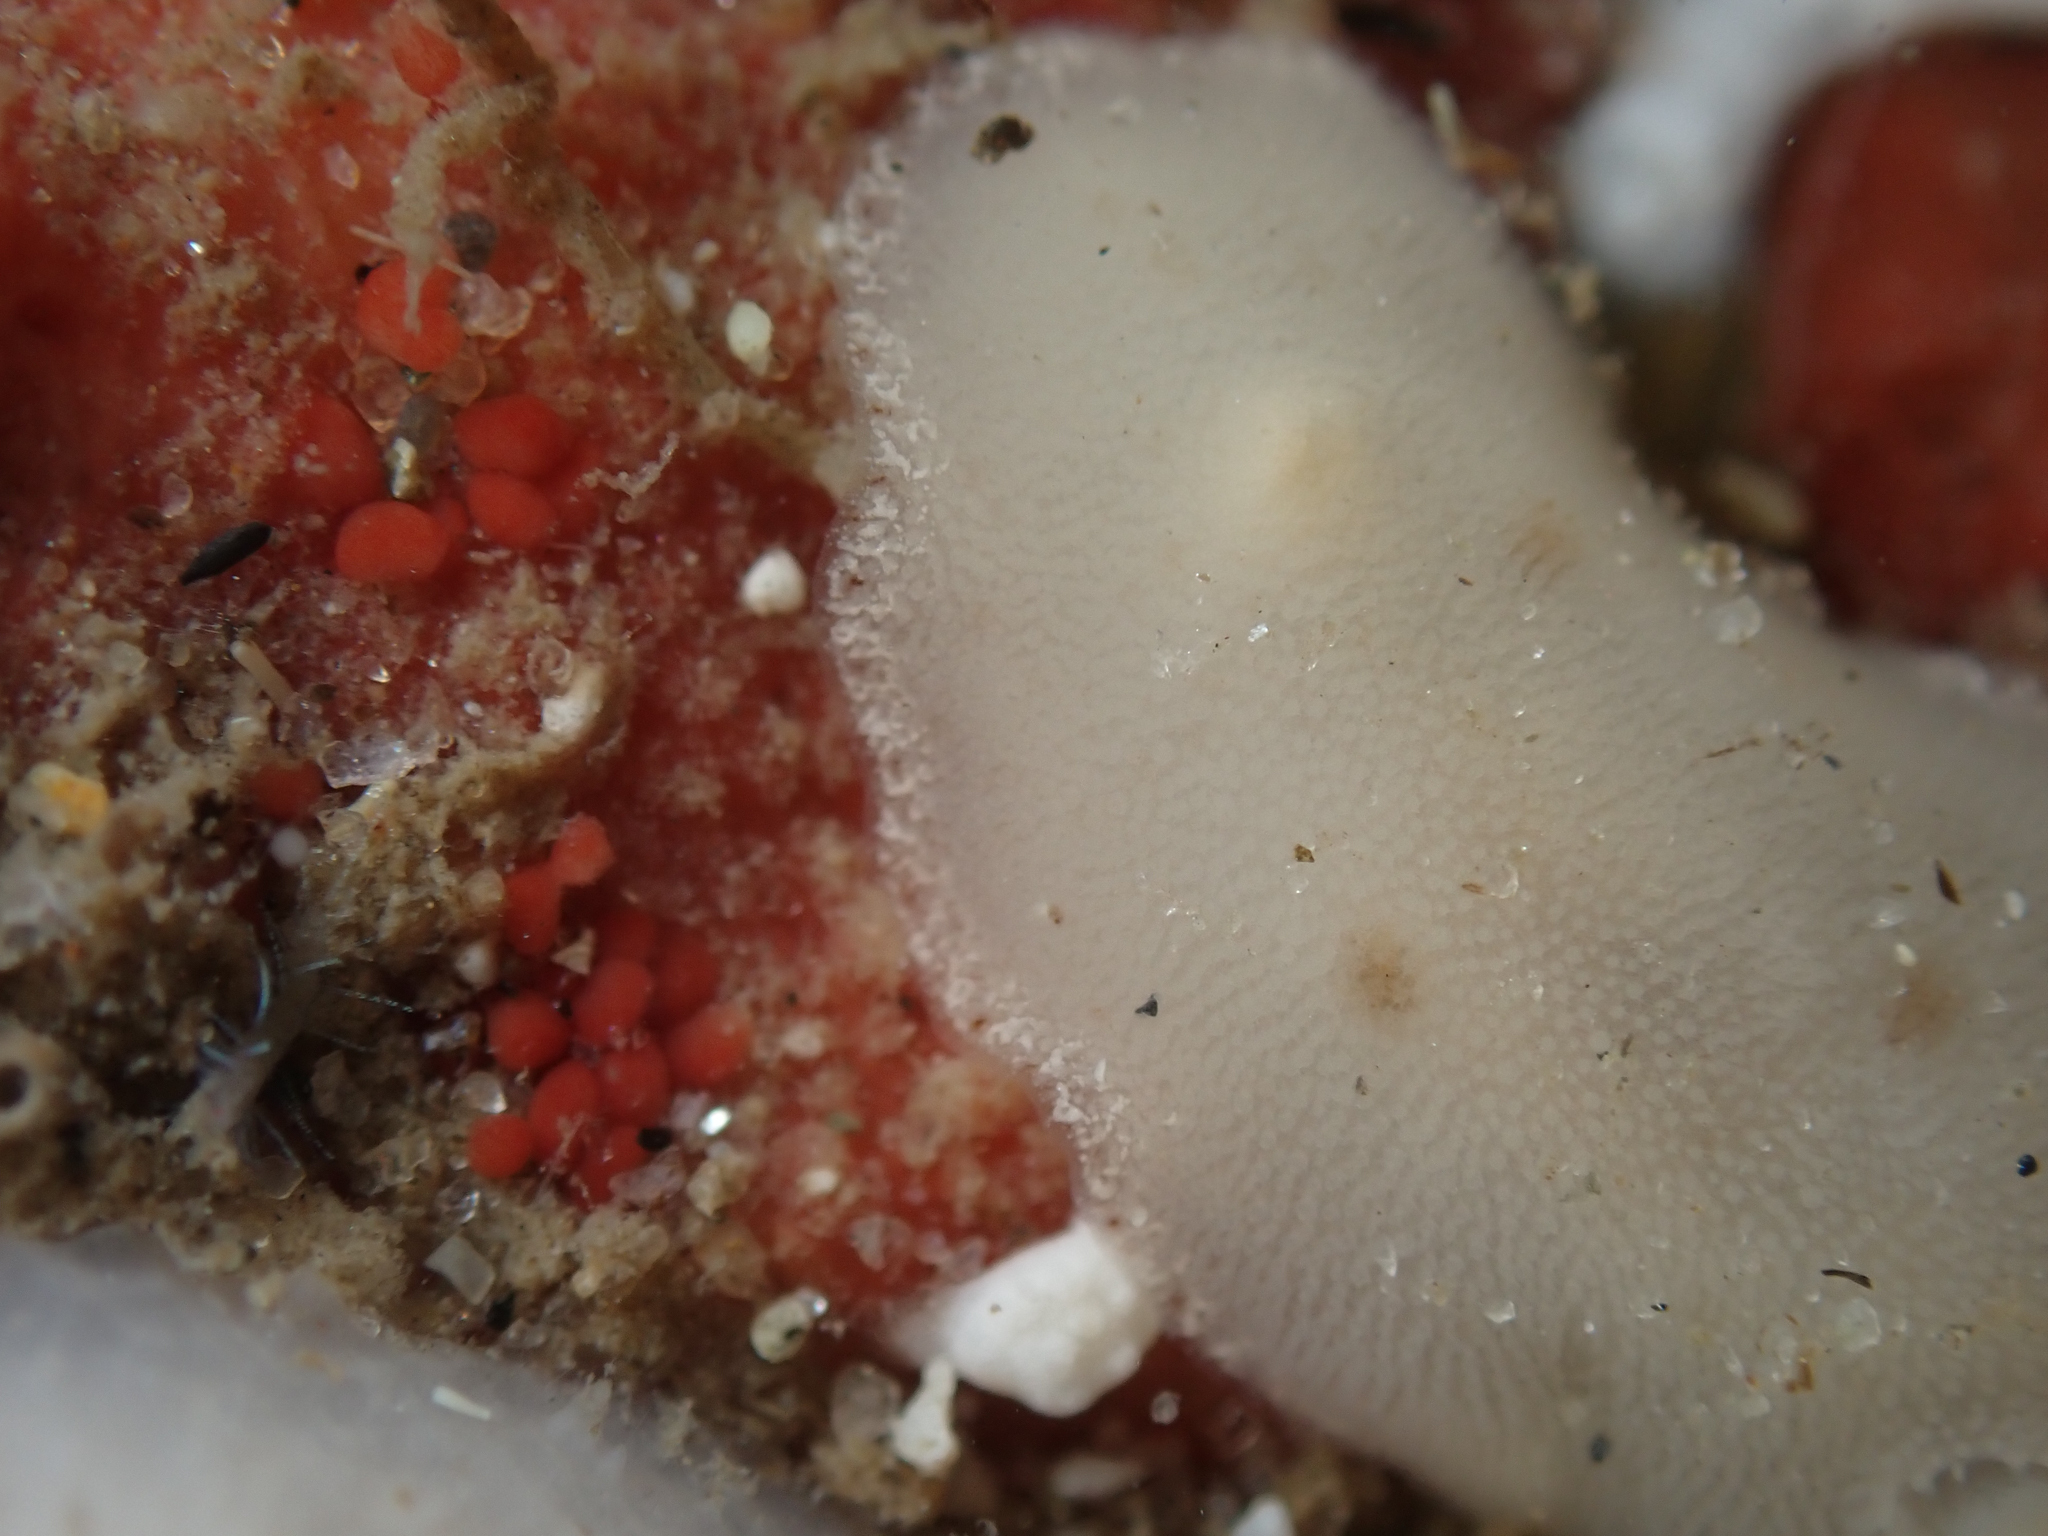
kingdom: Animalia
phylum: Mollusca
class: Gastropoda
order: Nudibranchia
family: Discodorididae
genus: Diaulula
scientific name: Diaulula sandiegensis
